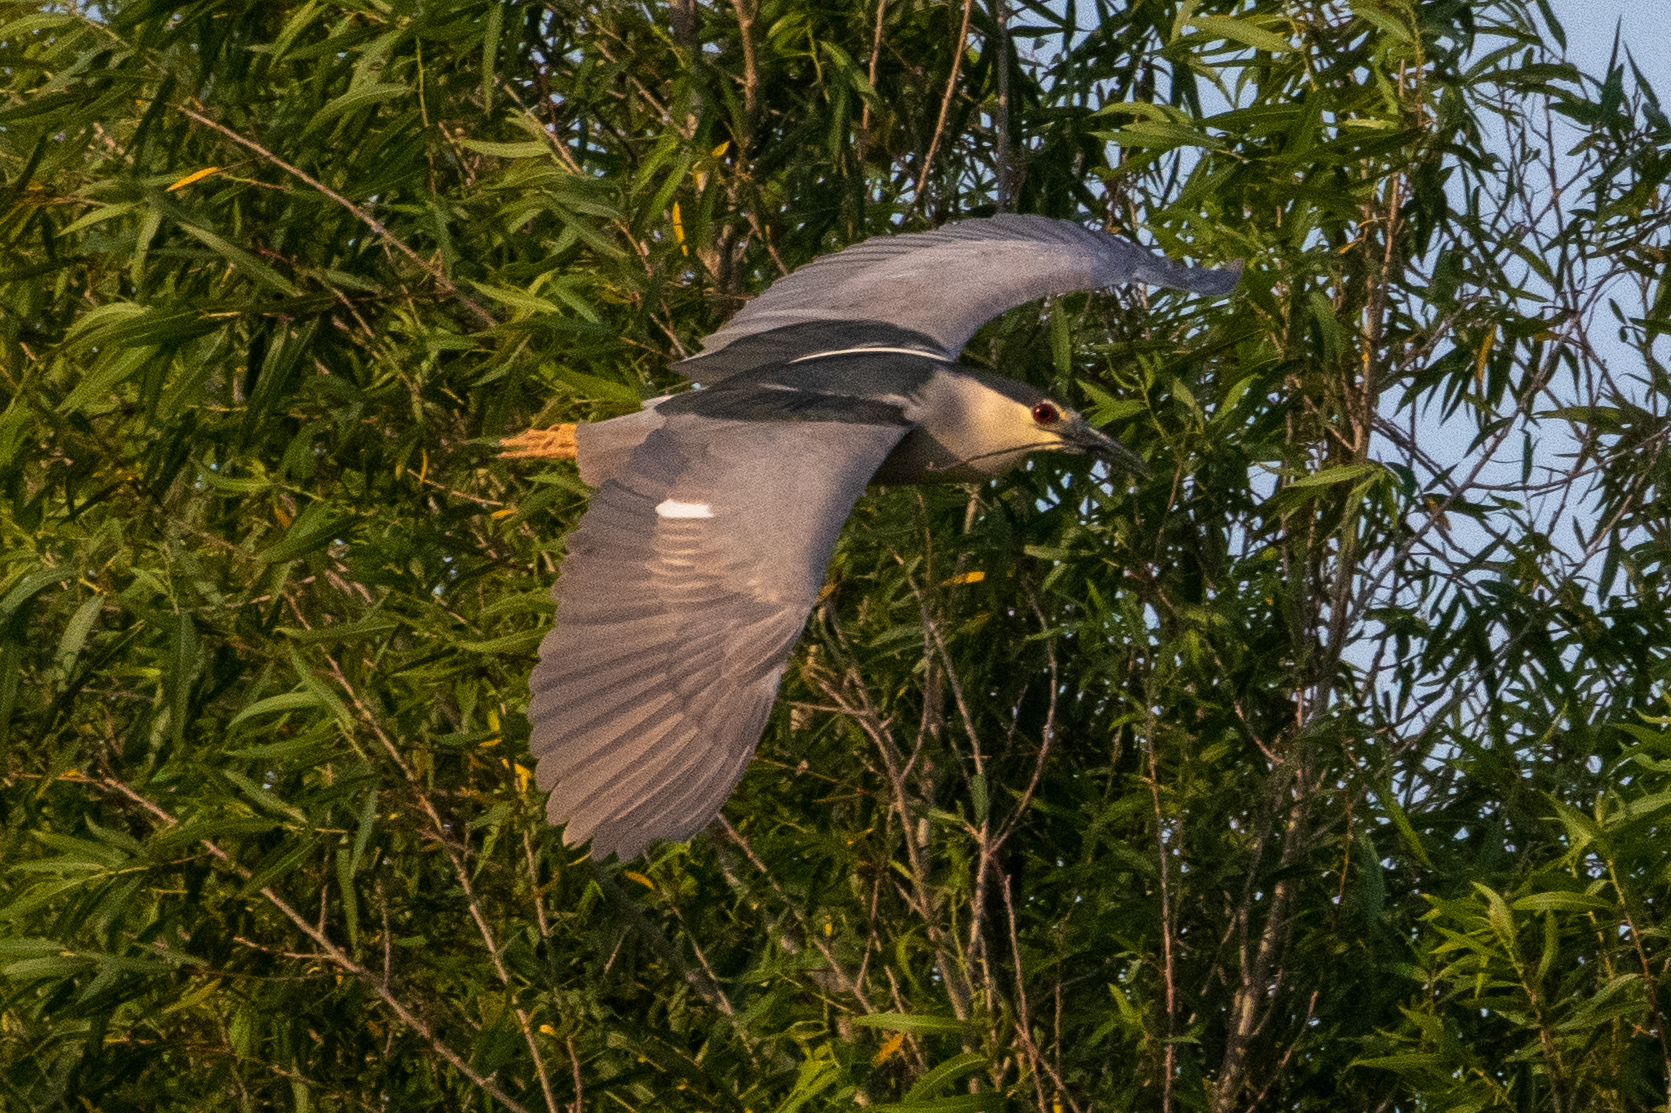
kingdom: Animalia
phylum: Chordata
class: Aves
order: Pelecaniformes
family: Ardeidae
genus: Nycticorax
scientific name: Nycticorax nycticorax
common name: Black-crowned night heron
